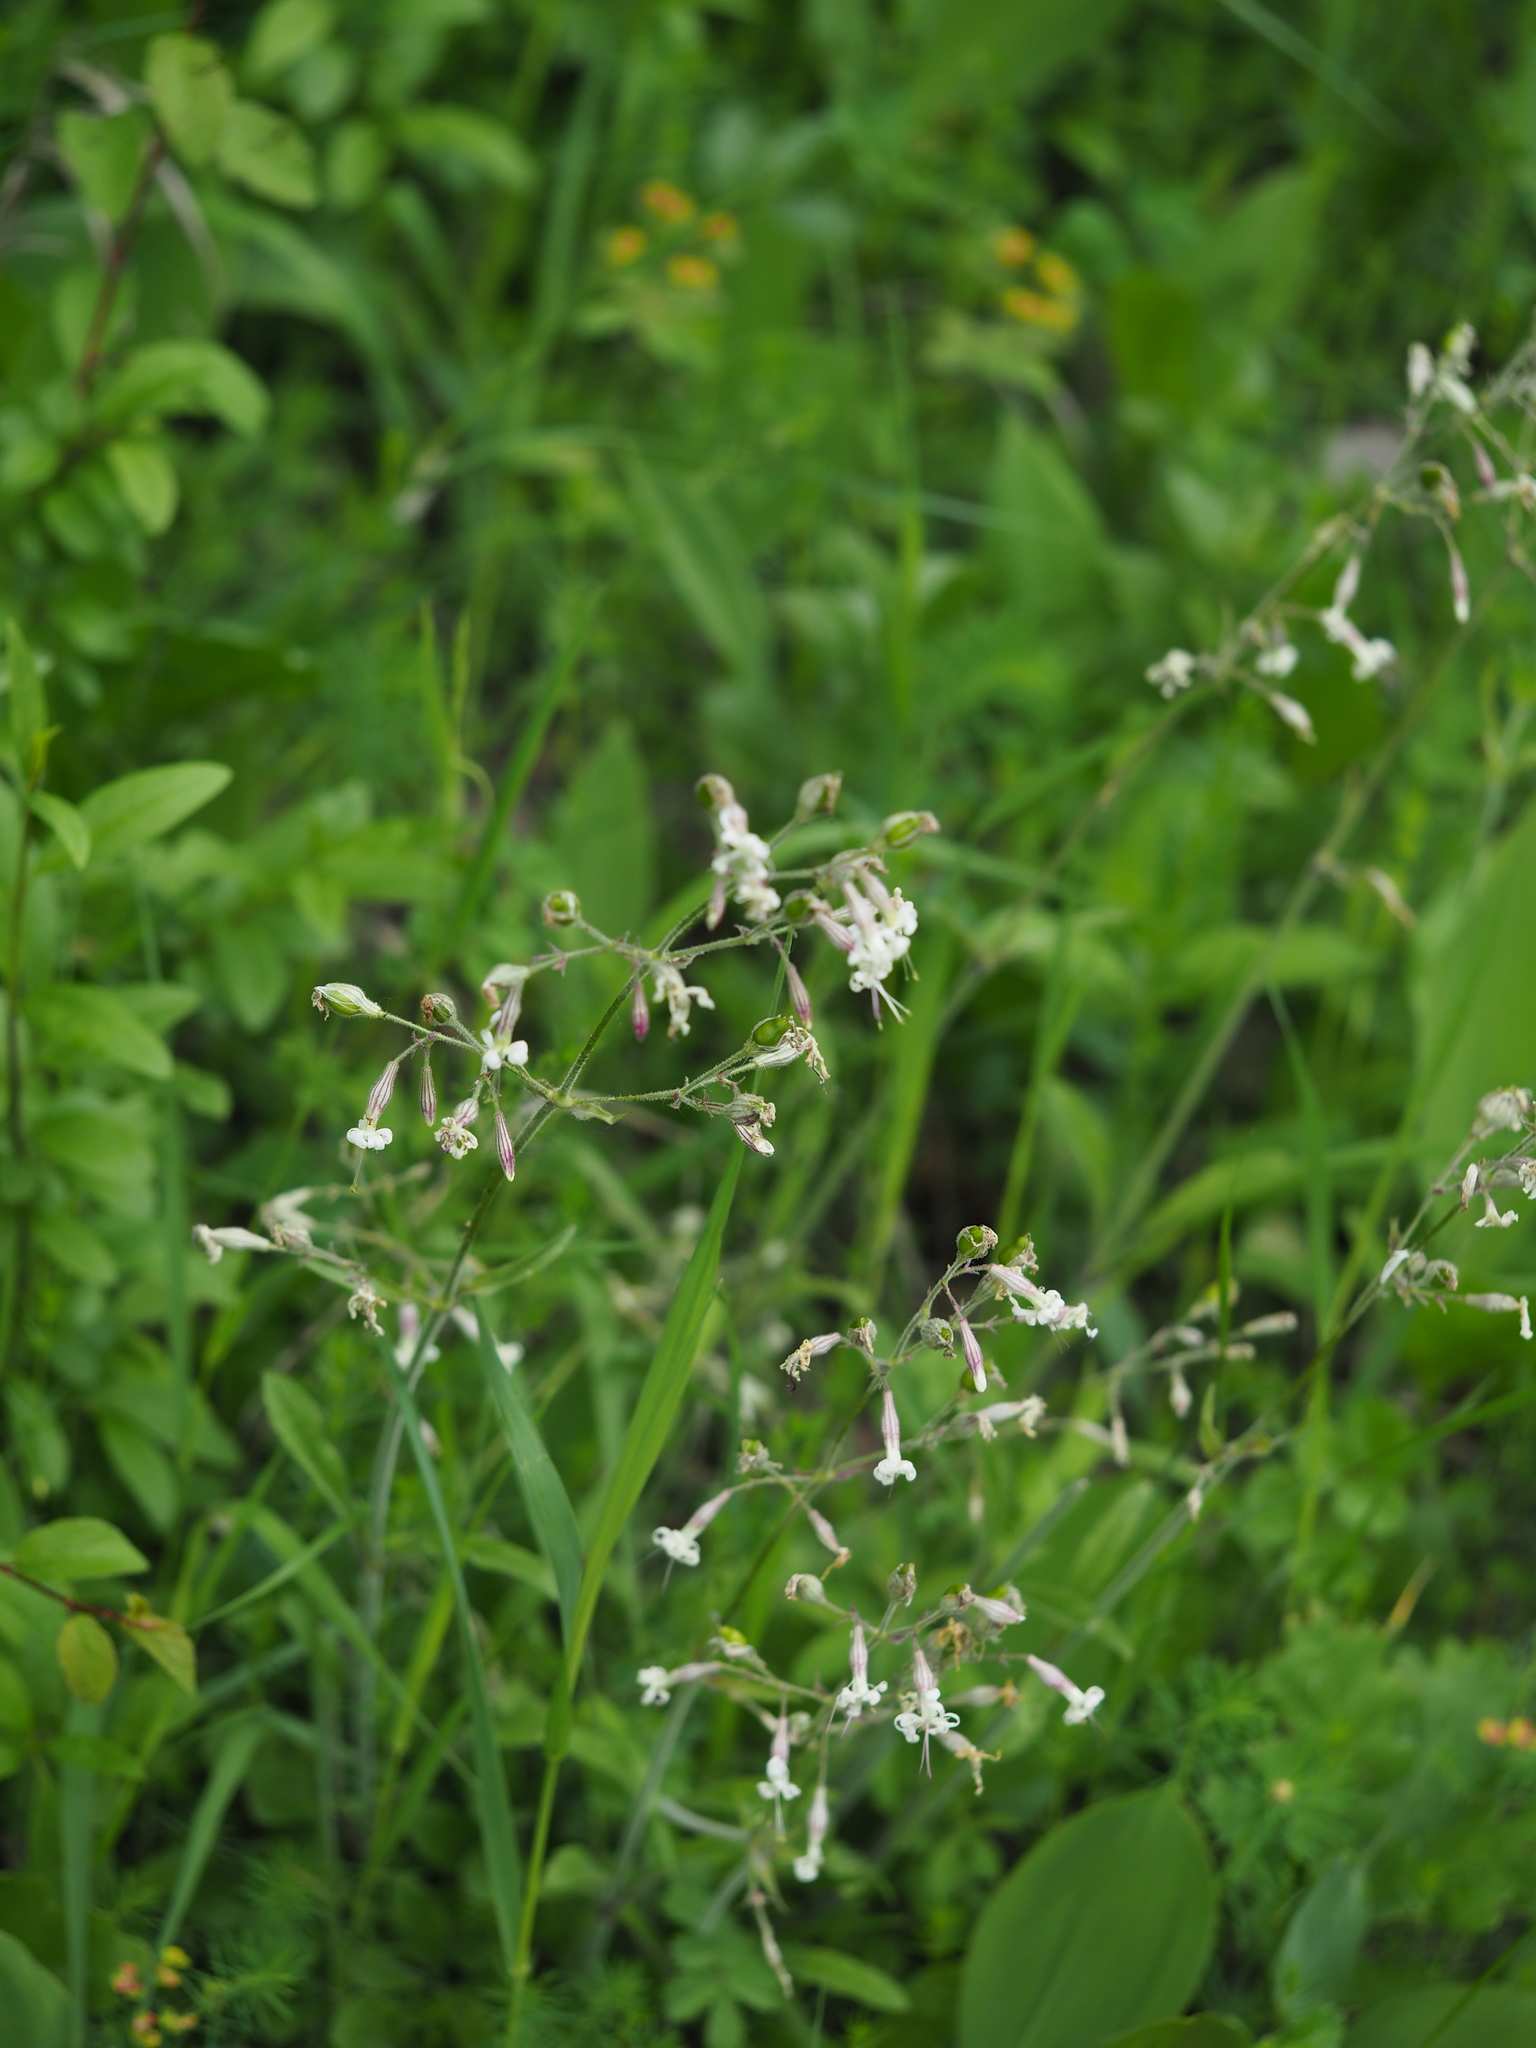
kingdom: Plantae
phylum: Tracheophyta
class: Magnoliopsida
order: Caryophyllales
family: Caryophyllaceae
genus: Silene
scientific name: Silene nutans
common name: Nottingham catchfly
